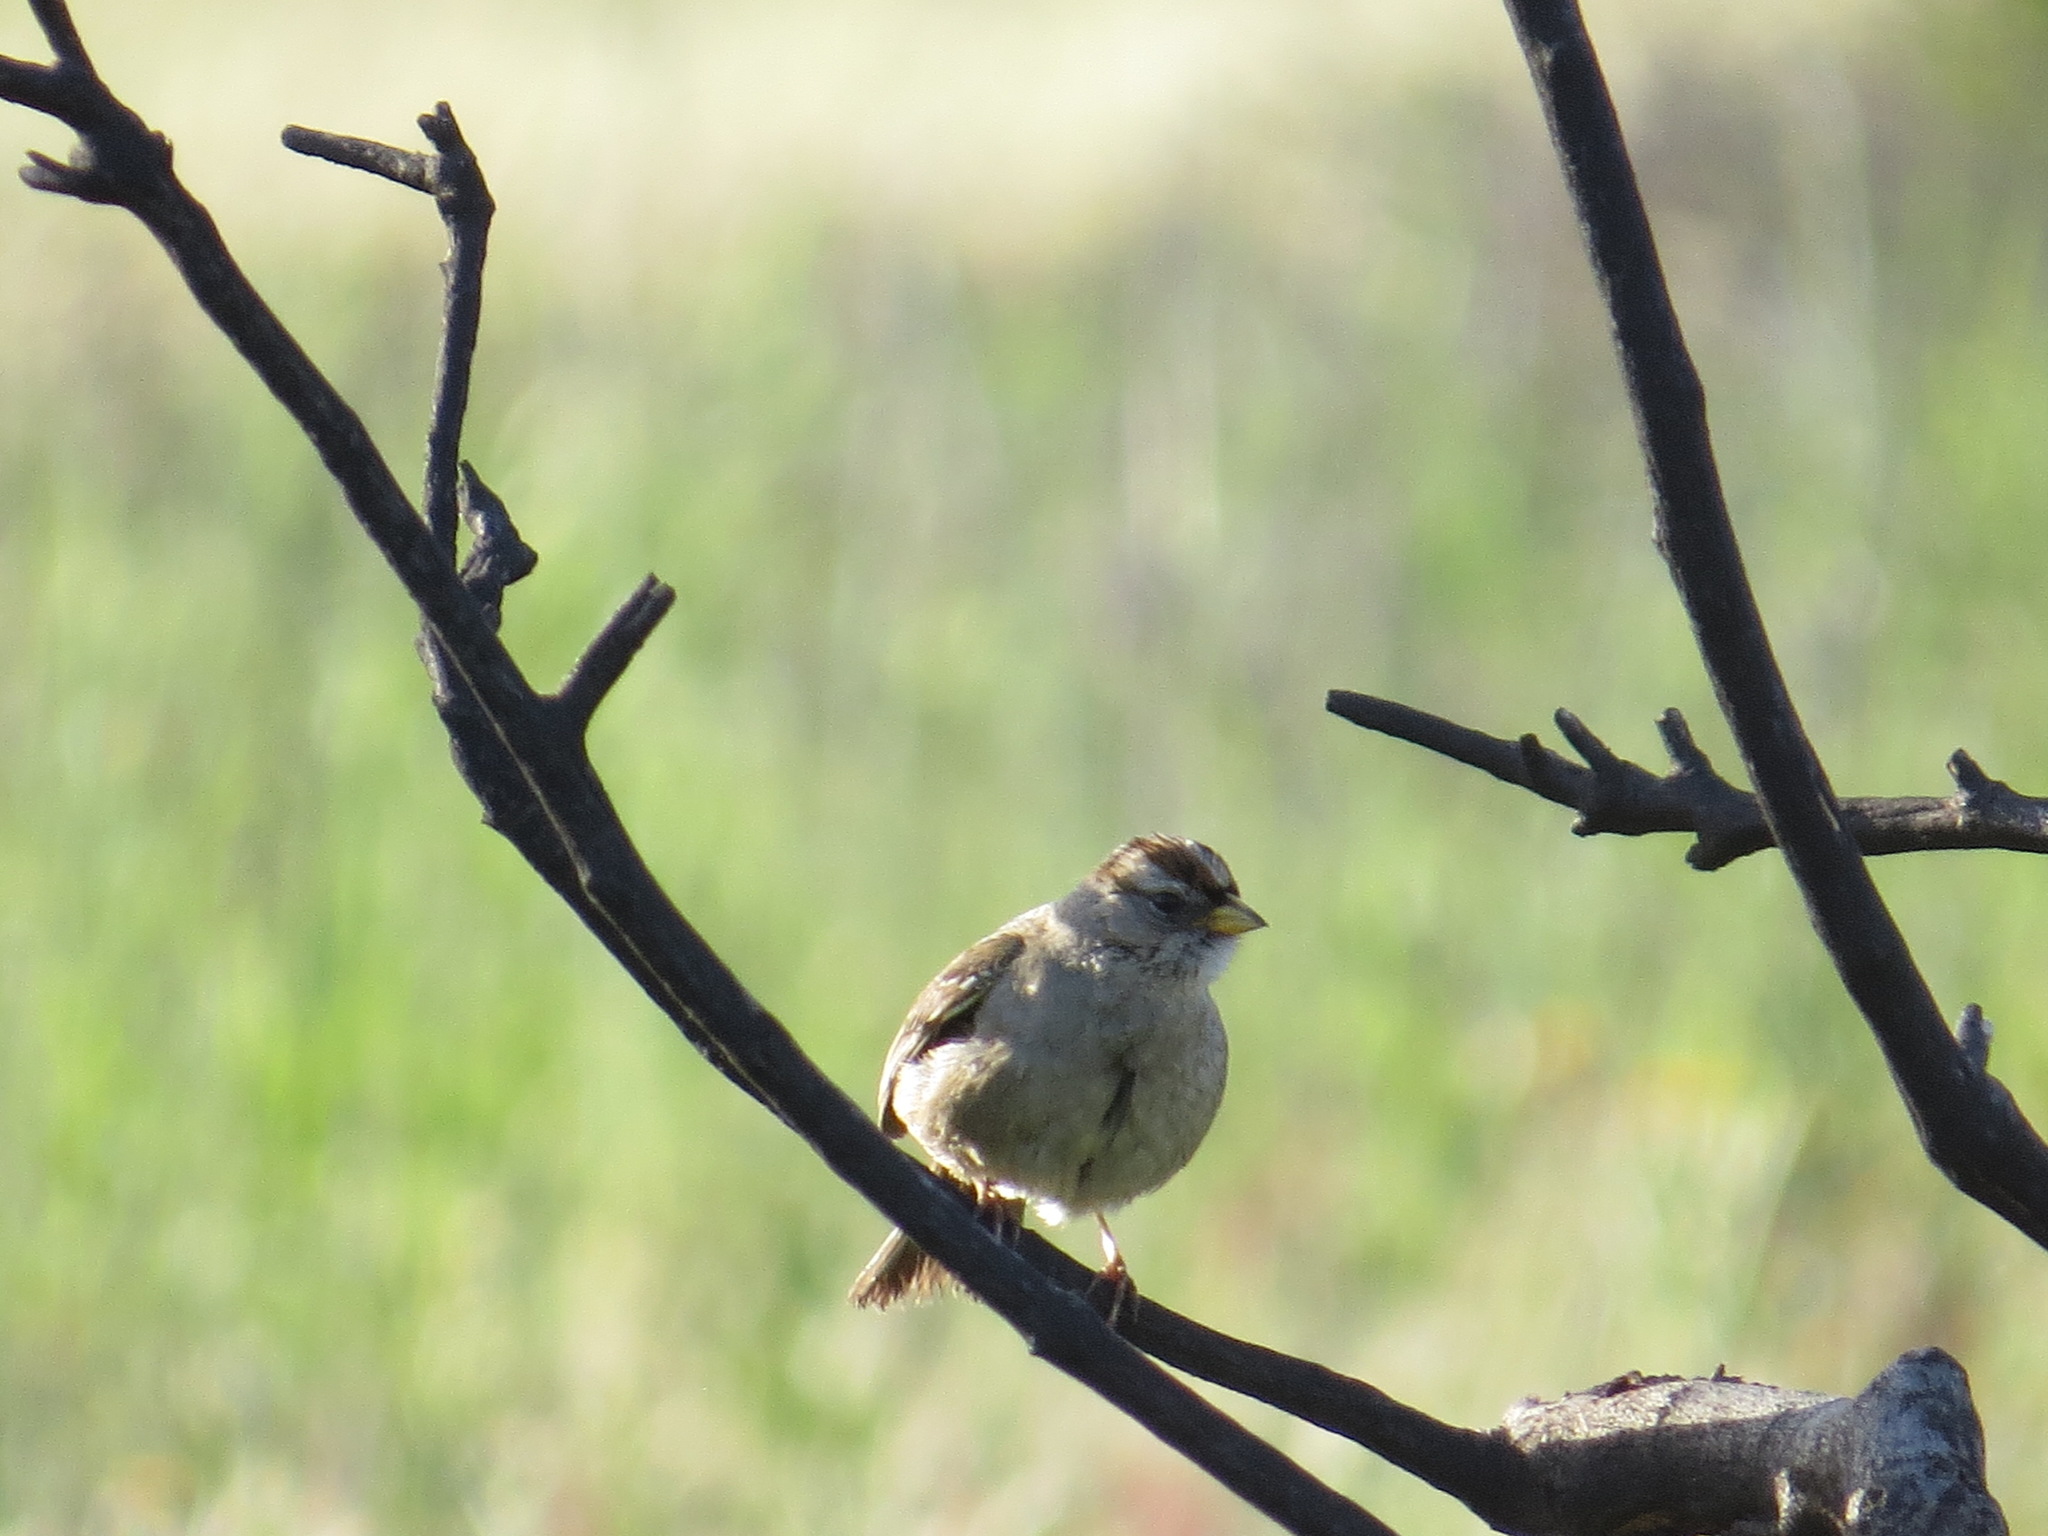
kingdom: Animalia
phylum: Chordata
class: Aves
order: Passeriformes
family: Passerellidae
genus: Zonotrichia
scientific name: Zonotrichia leucophrys
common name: White-crowned sparrow
